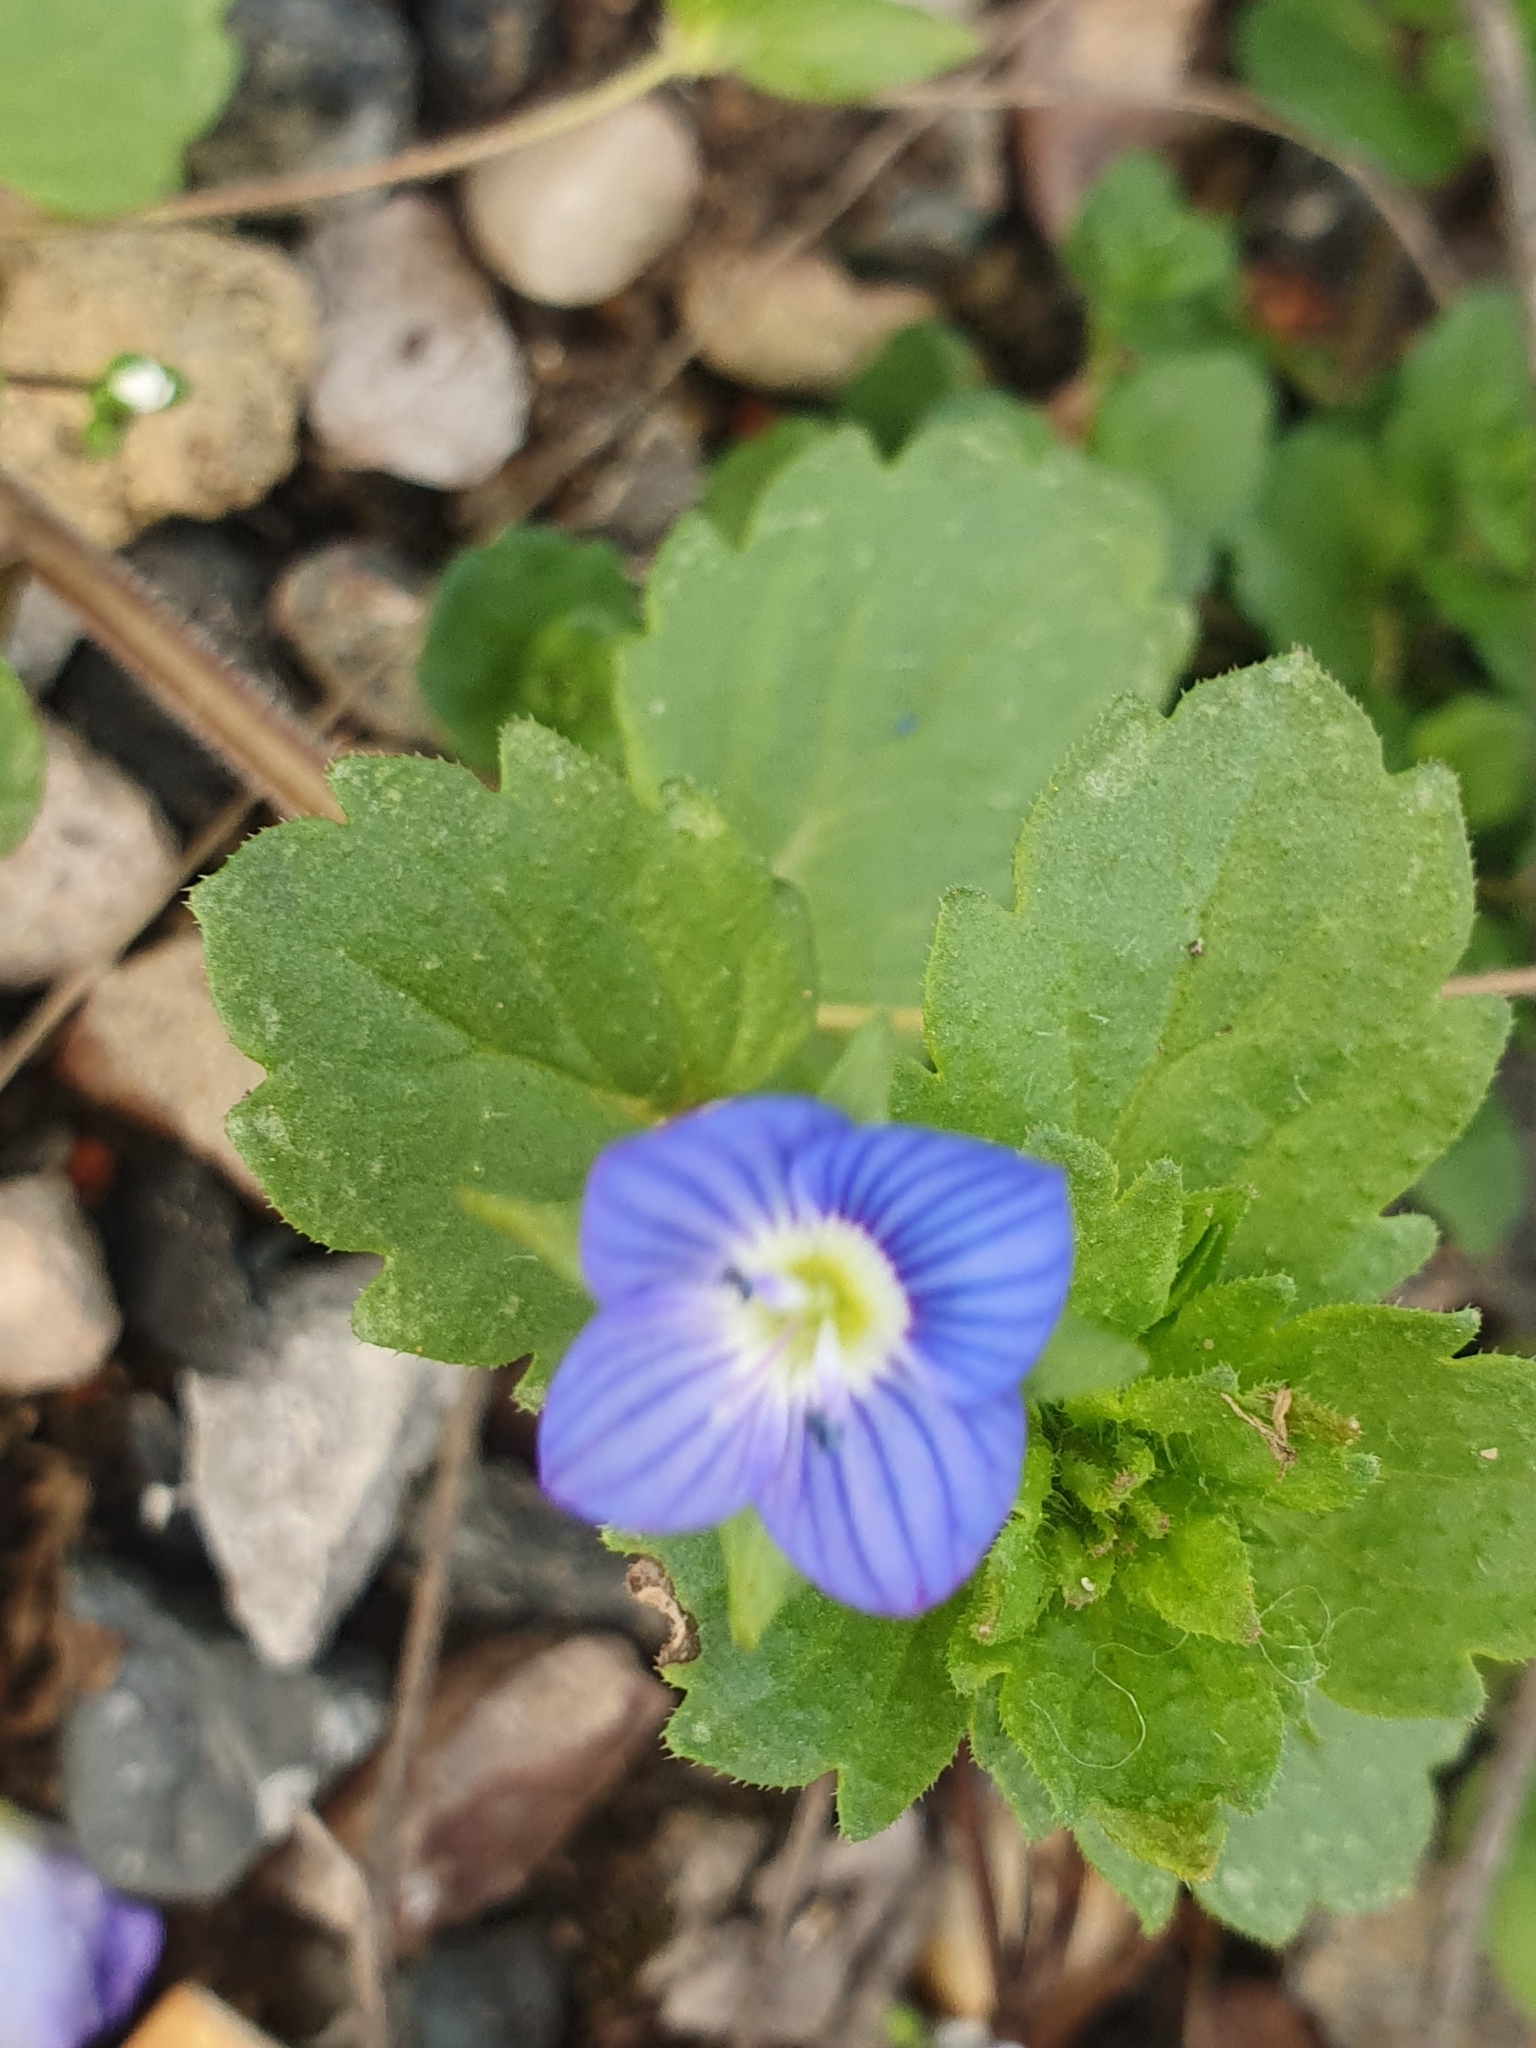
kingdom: Plantae
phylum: Tracheophyta
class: Magnoliopsida
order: Lamiales
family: Plantaginaceae
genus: Veronica
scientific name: Veronica persica
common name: Common field-speedwell
